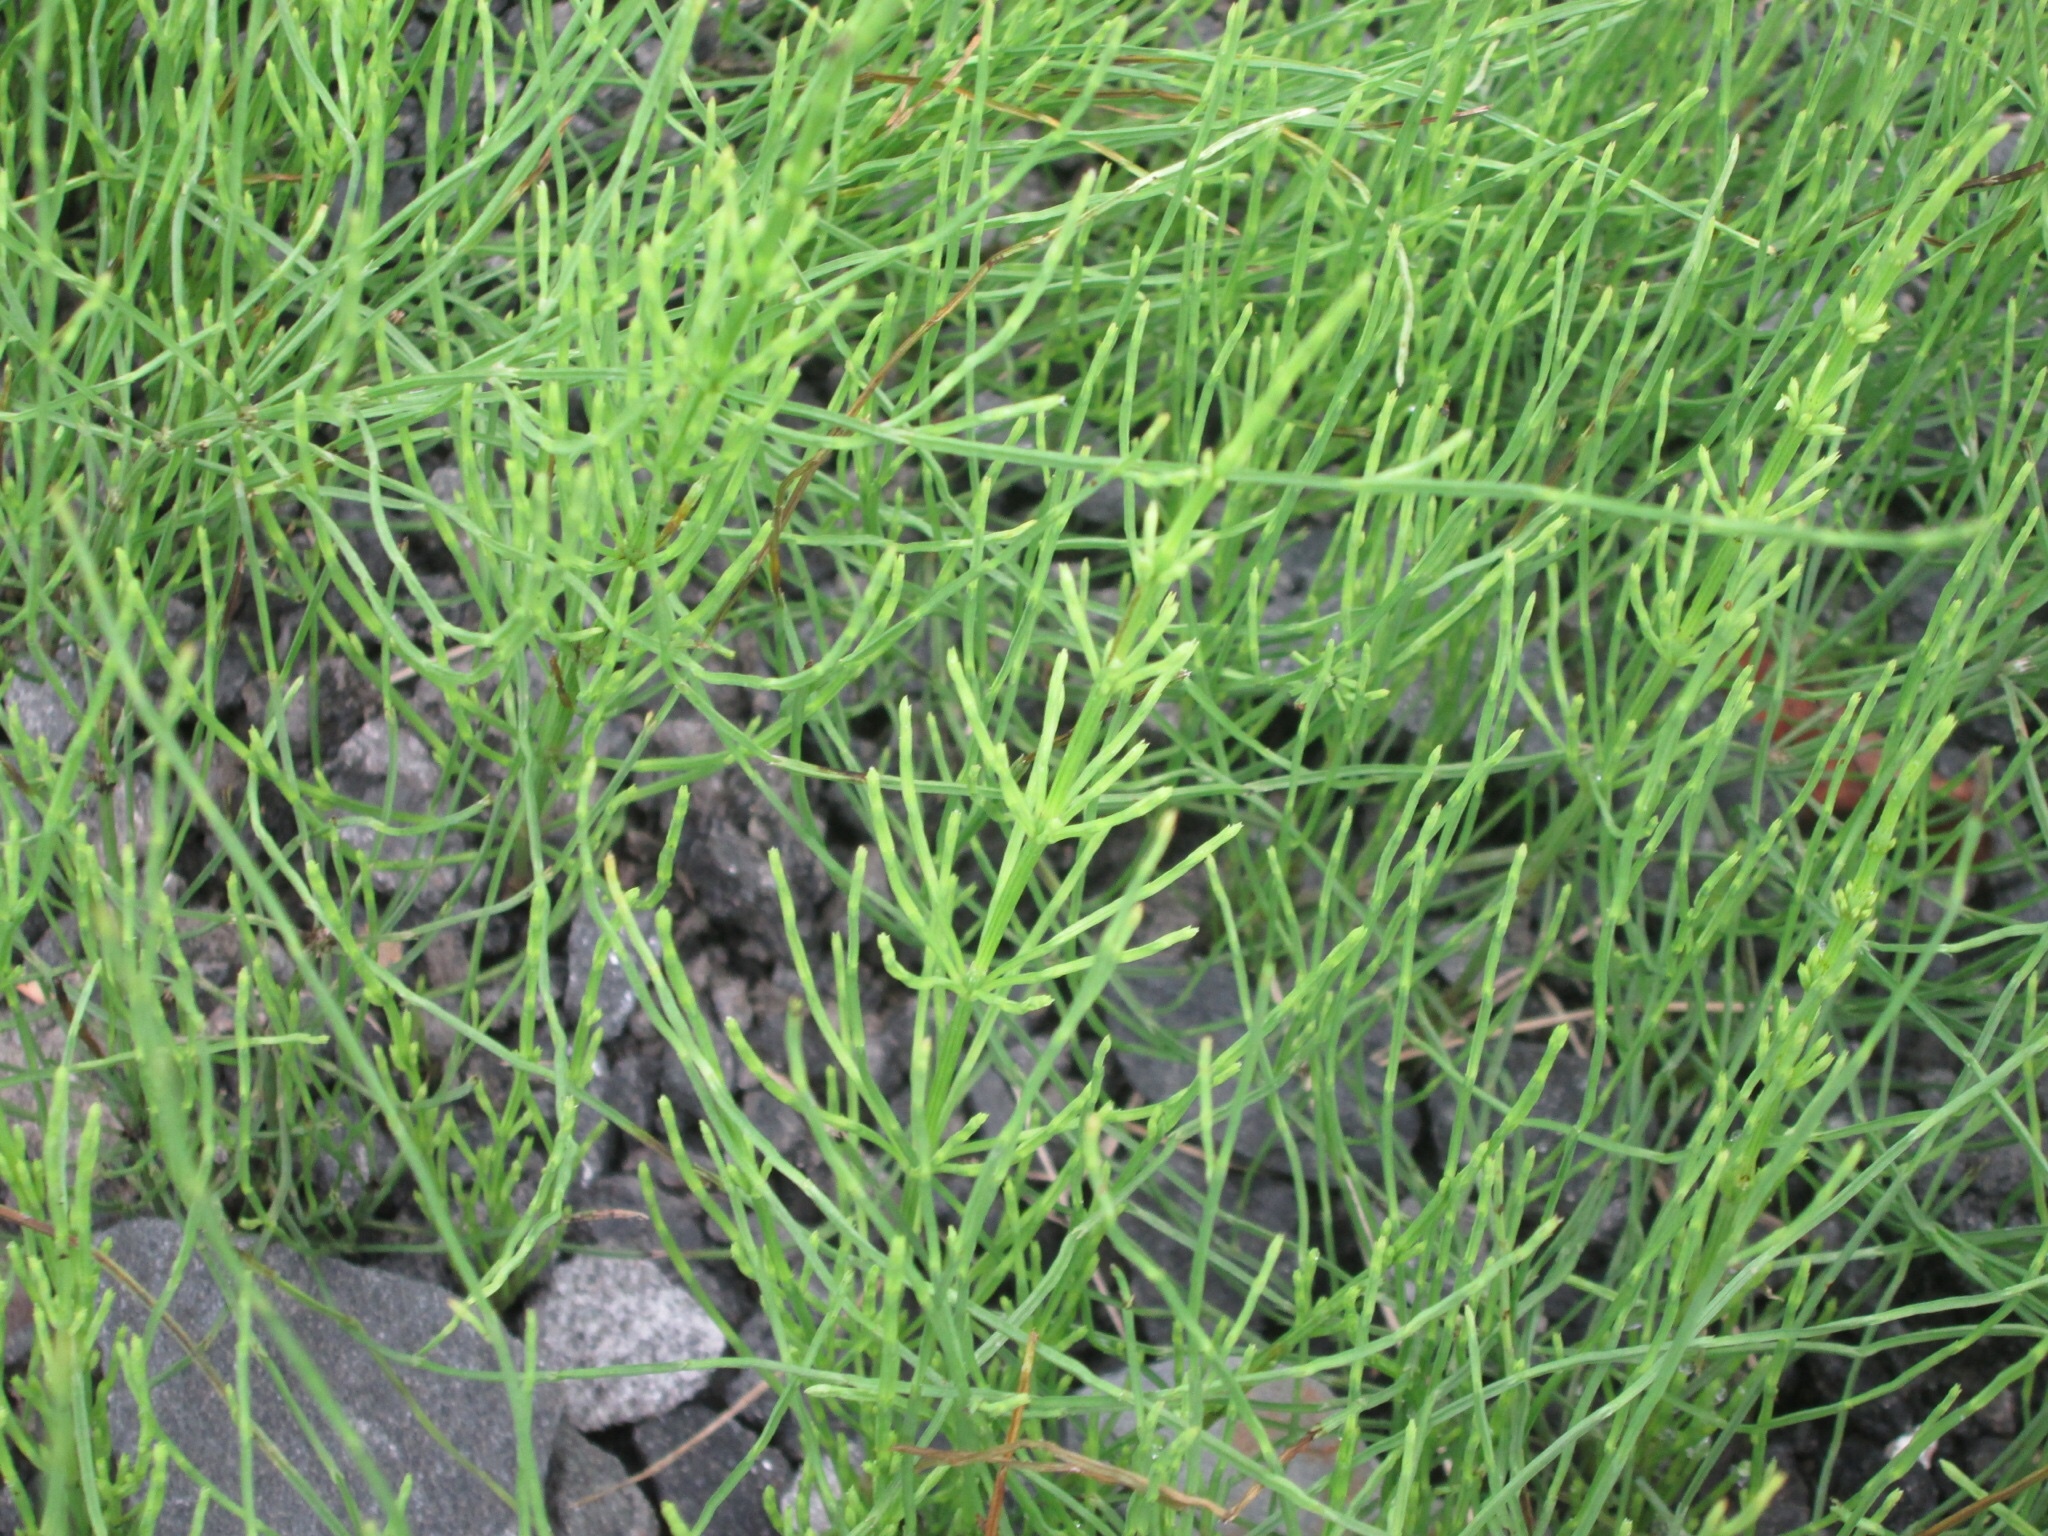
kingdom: Plantae
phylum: Tracheophyta
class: Polypodiopsida
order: Equisetales
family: Equisetaceae
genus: Equisetum
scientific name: Equisetum arvense
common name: Field horsetail
